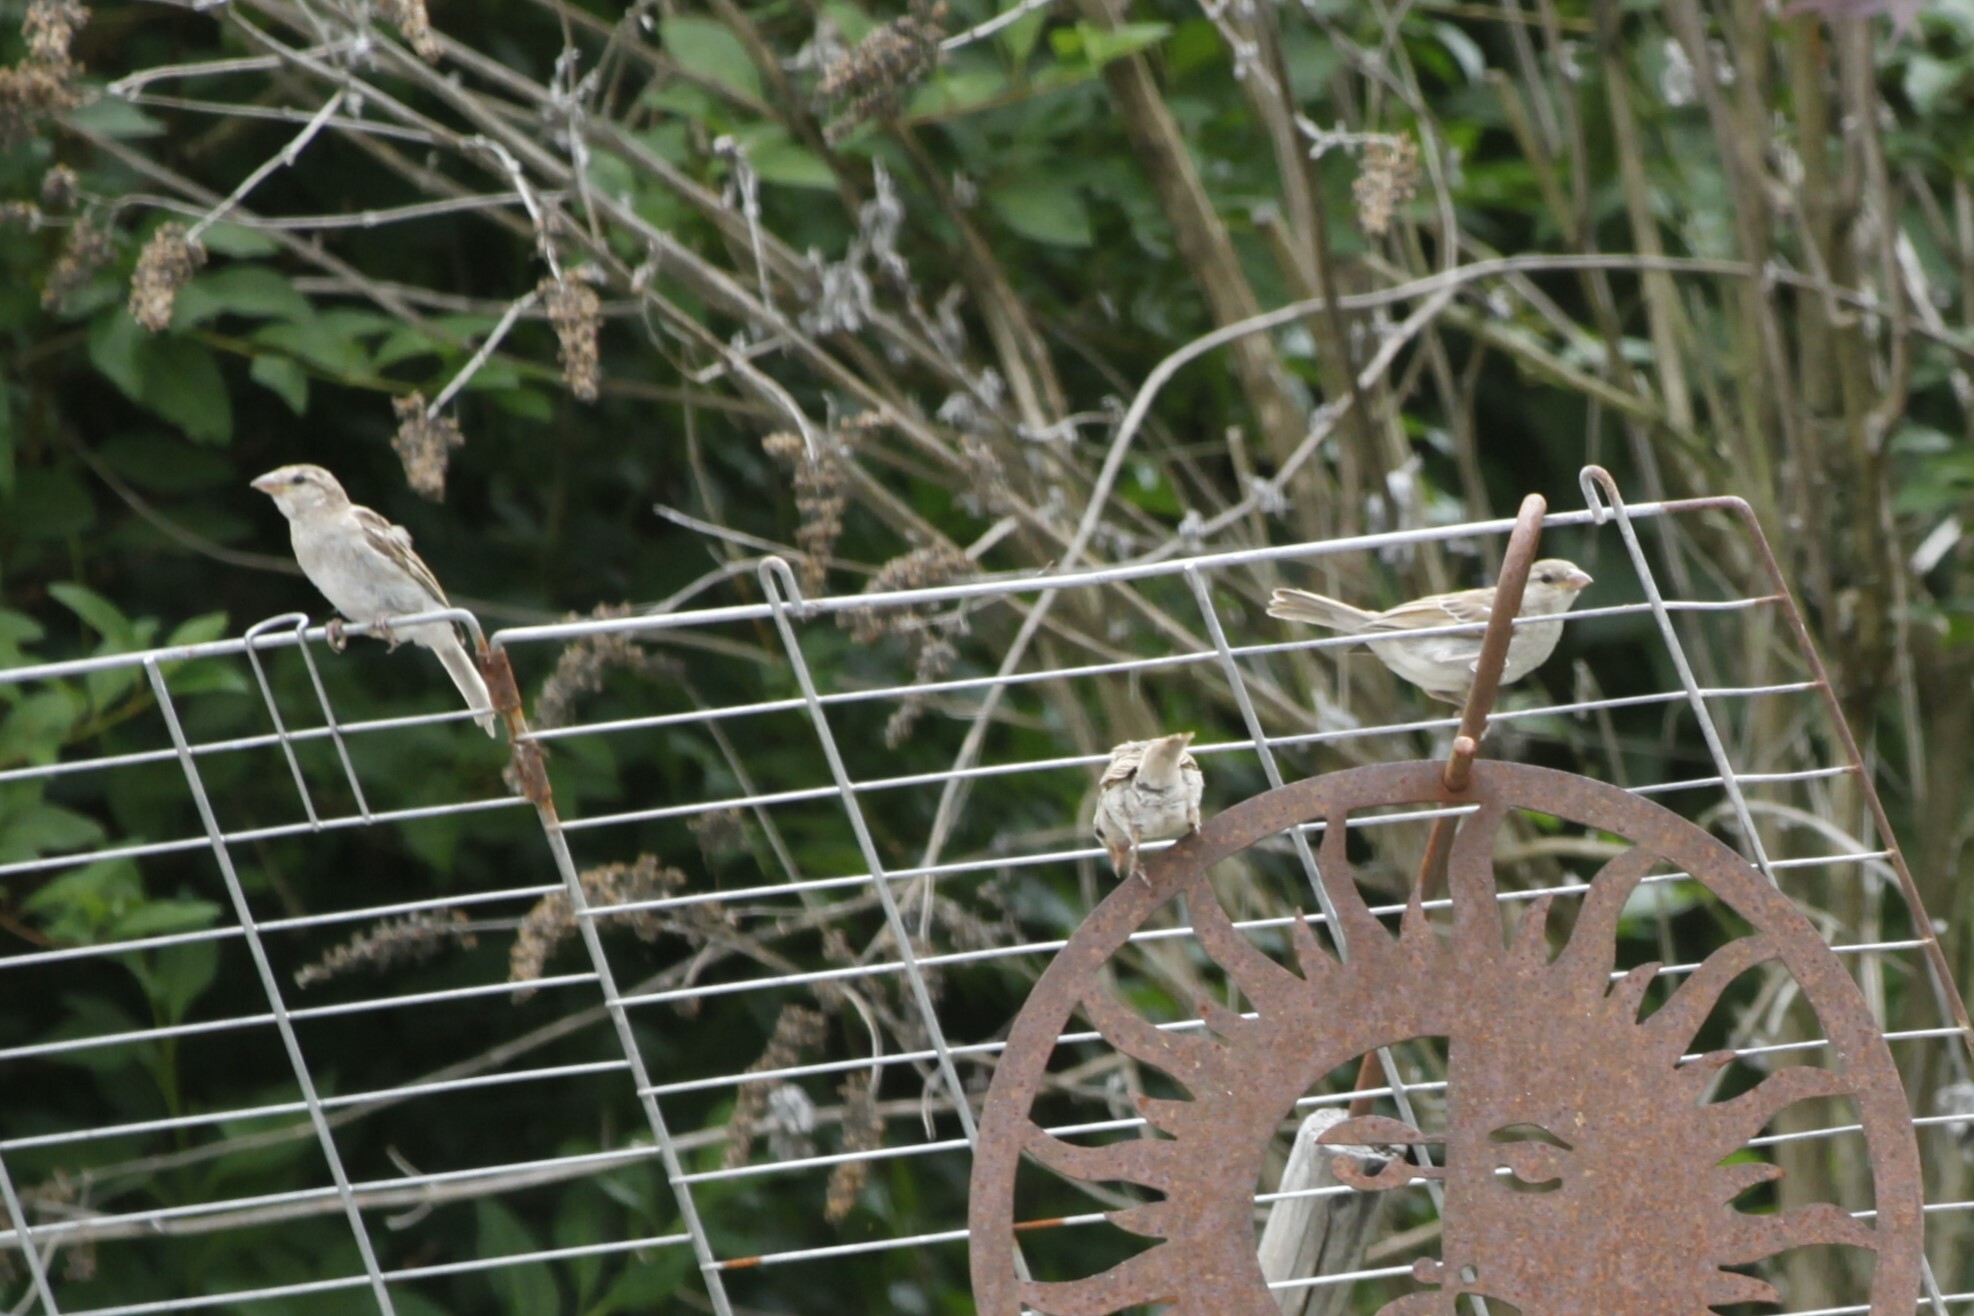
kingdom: Animalia
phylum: Chordata
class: Aves
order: Passeriformes
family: Passeridae
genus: Passer
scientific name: Passer domesticus
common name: House sparrow
